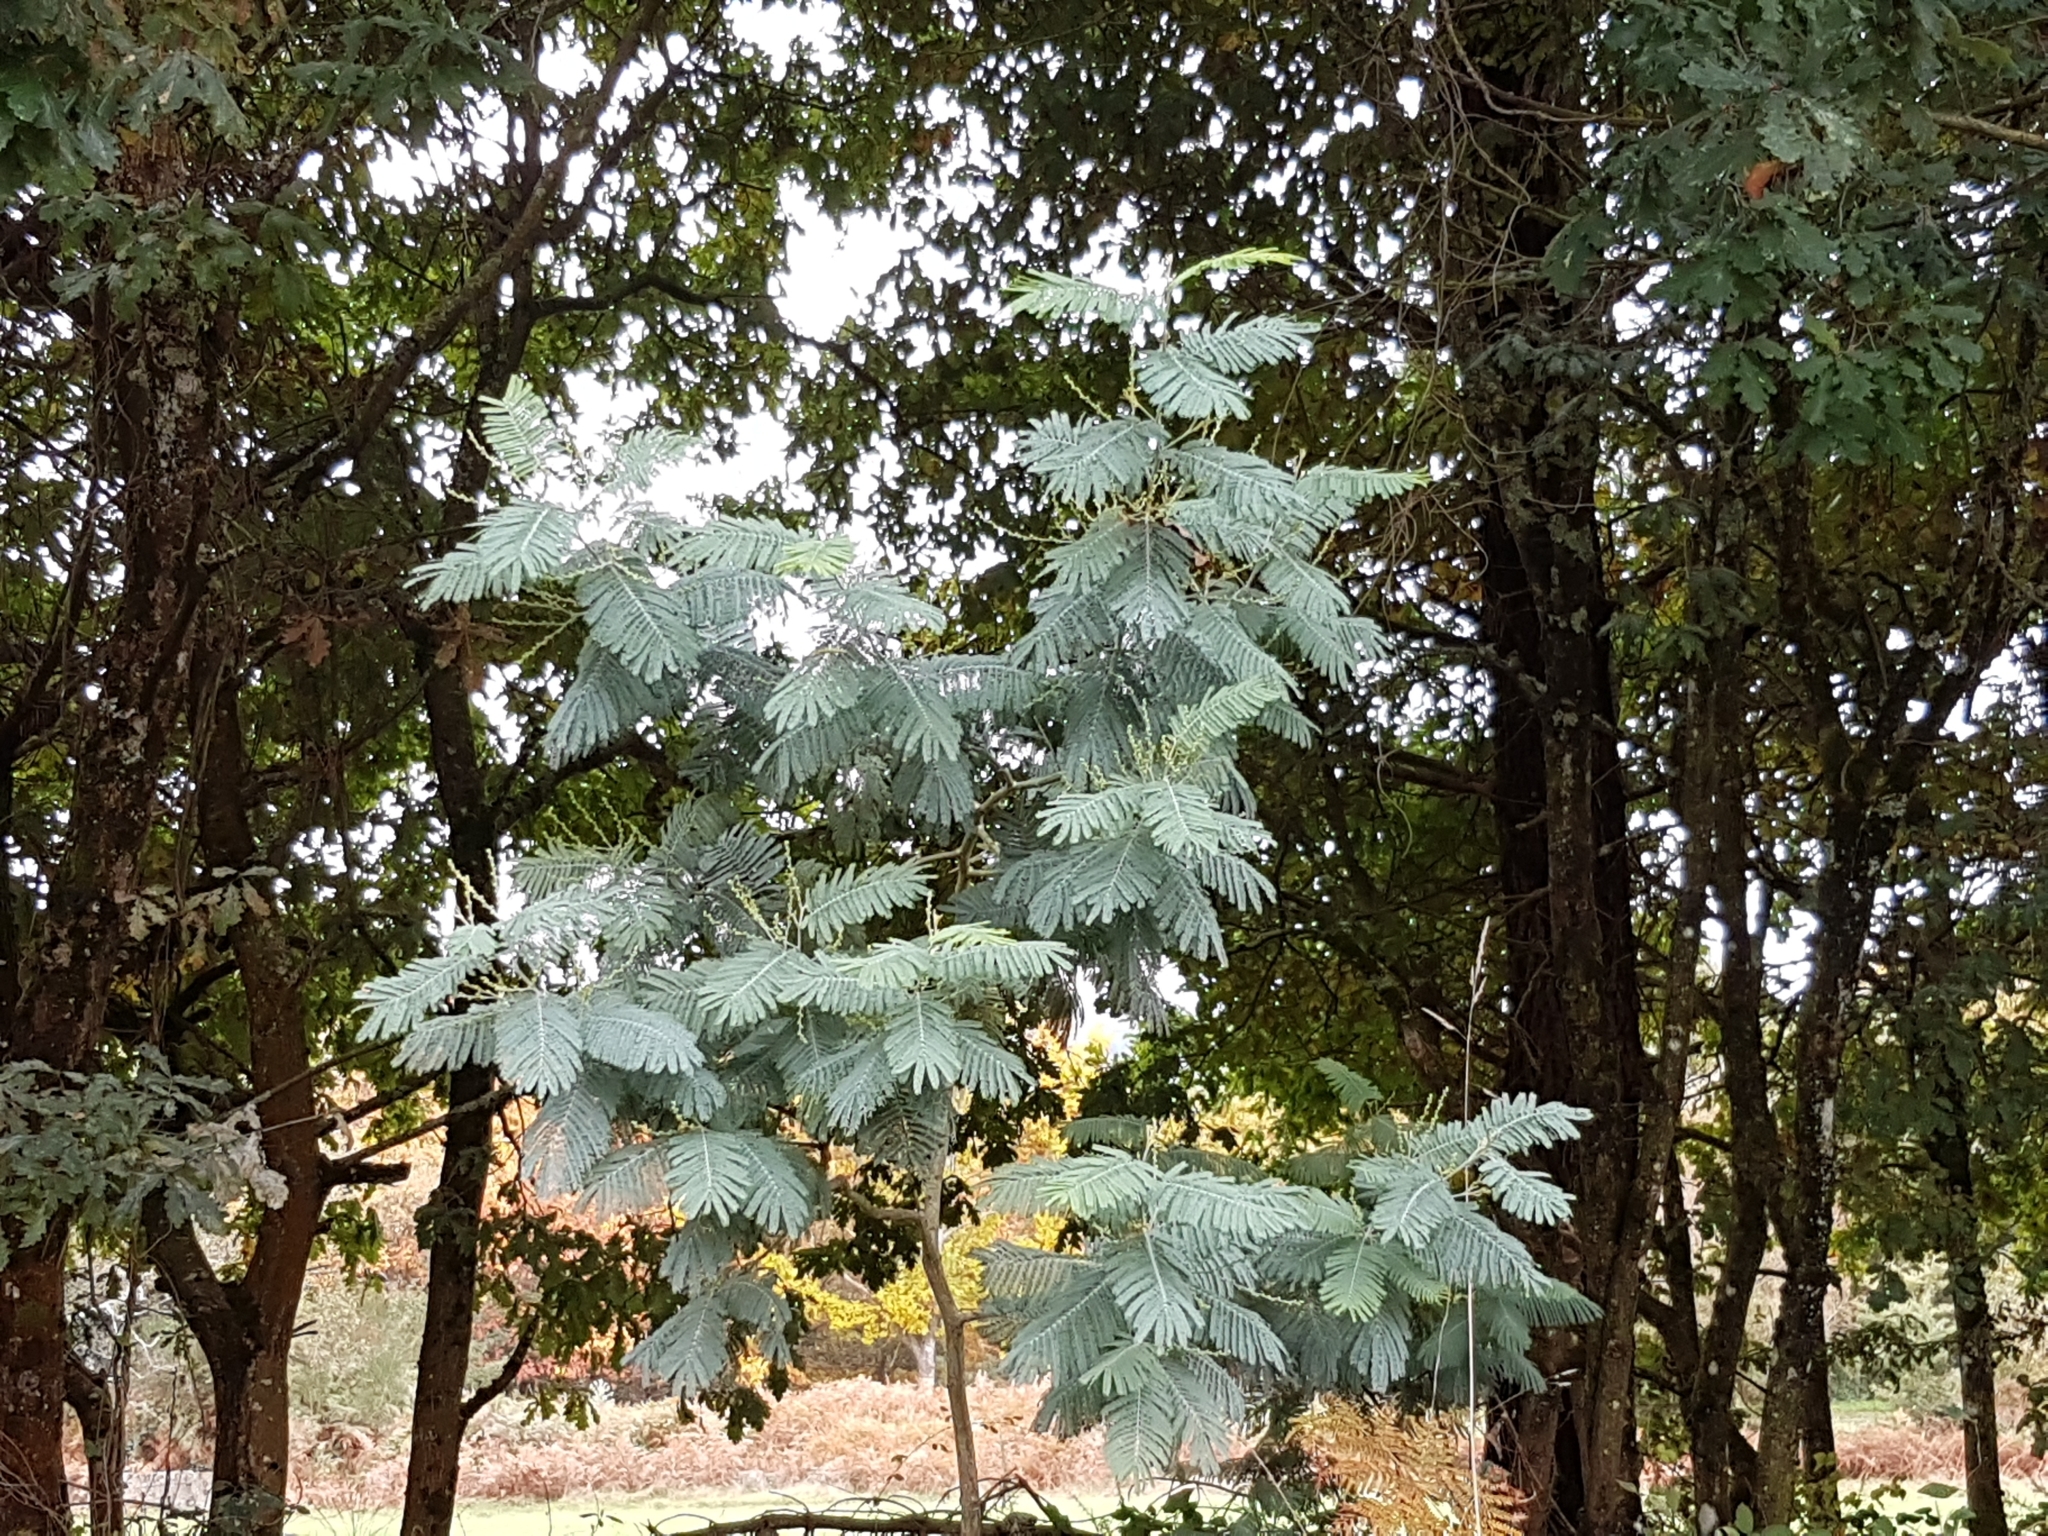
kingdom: Plantae
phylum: Tracheophyta
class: Magnoliopsida
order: Fabales
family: Fabaceae
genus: Acacia
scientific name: Acacia dealbata
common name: Silver wattle
